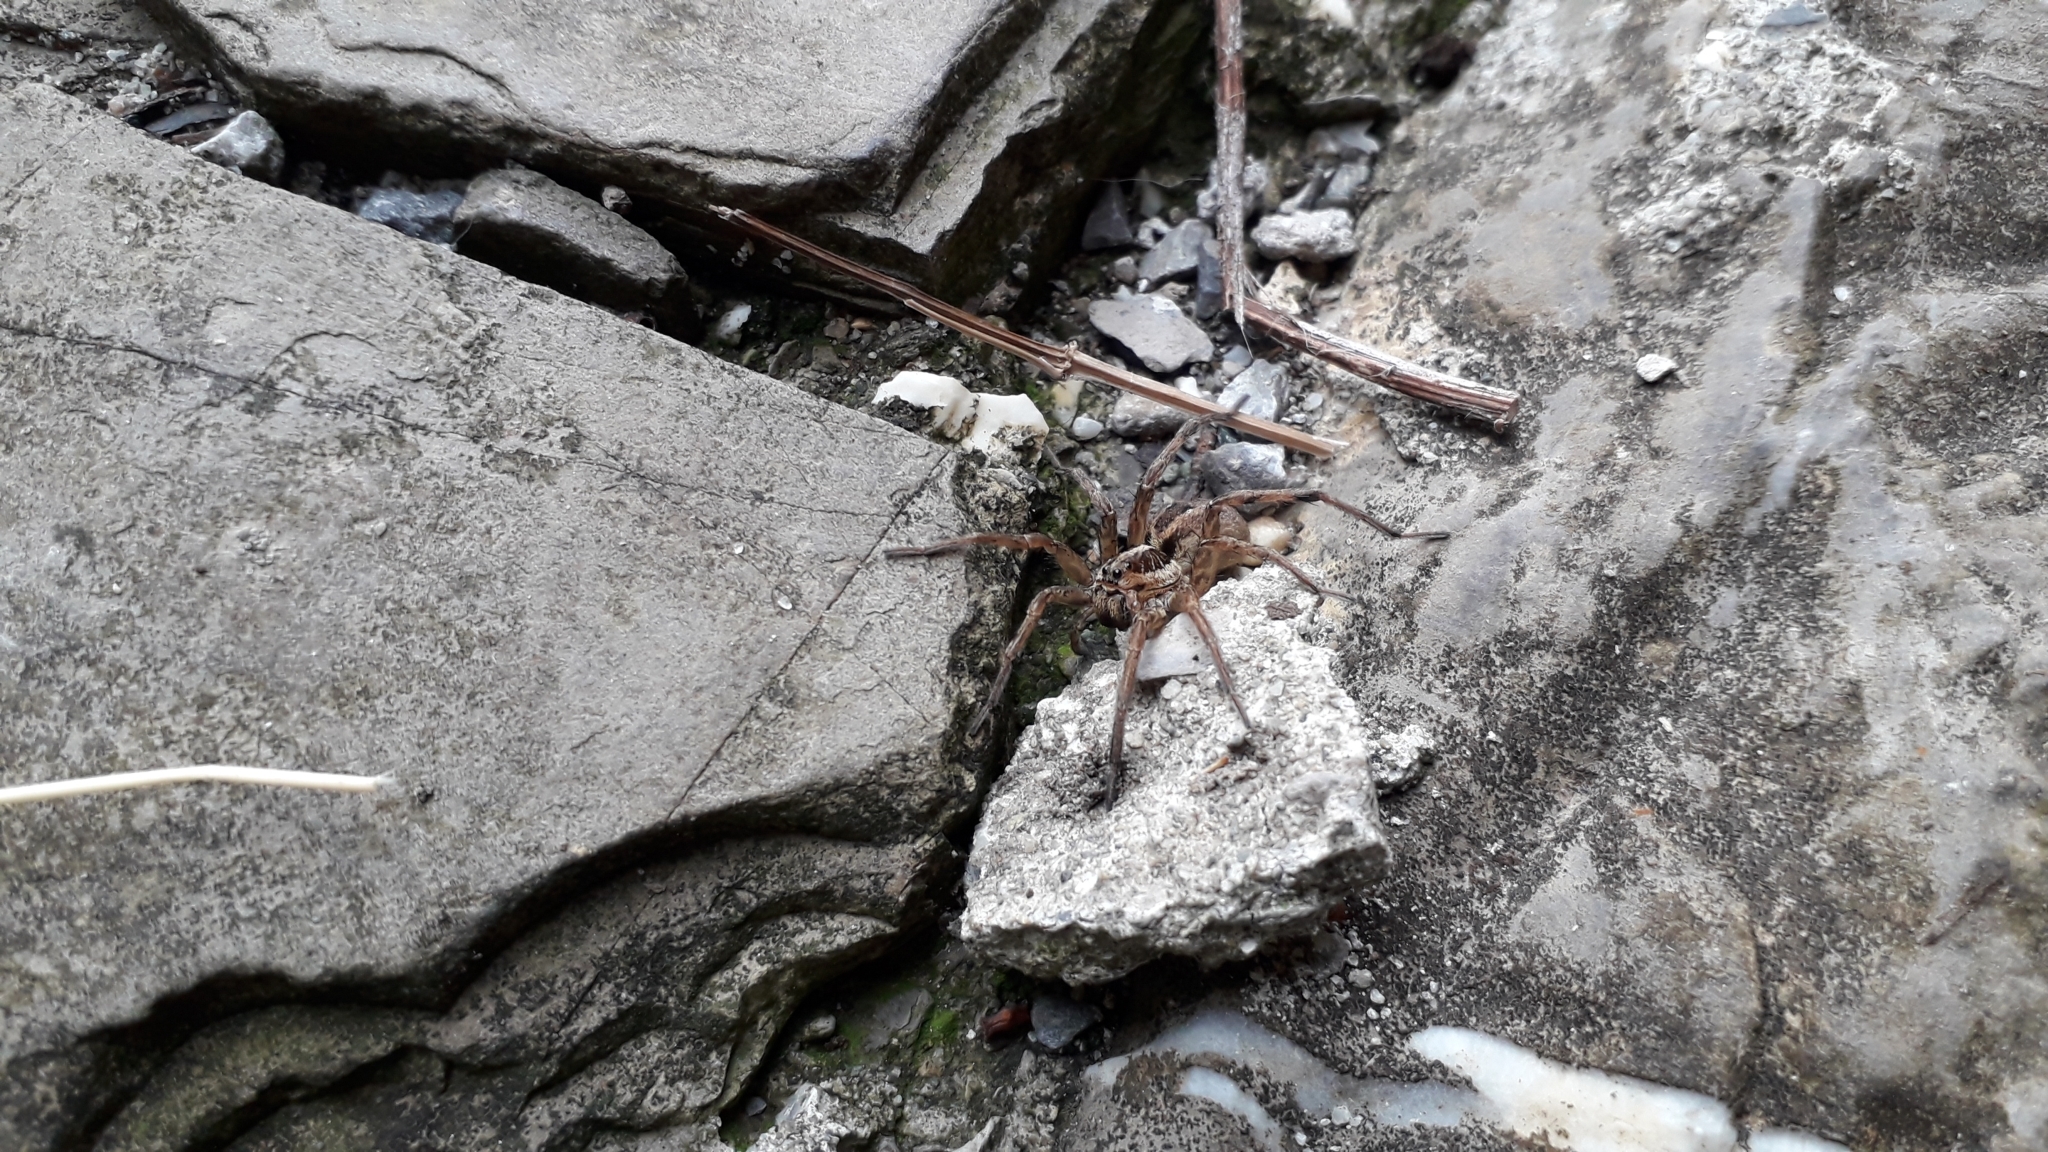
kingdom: Animalia
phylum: Arthropoda
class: Arachnida
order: Araneae
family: Lycosidae
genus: Hogna
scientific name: Hogna radiata
